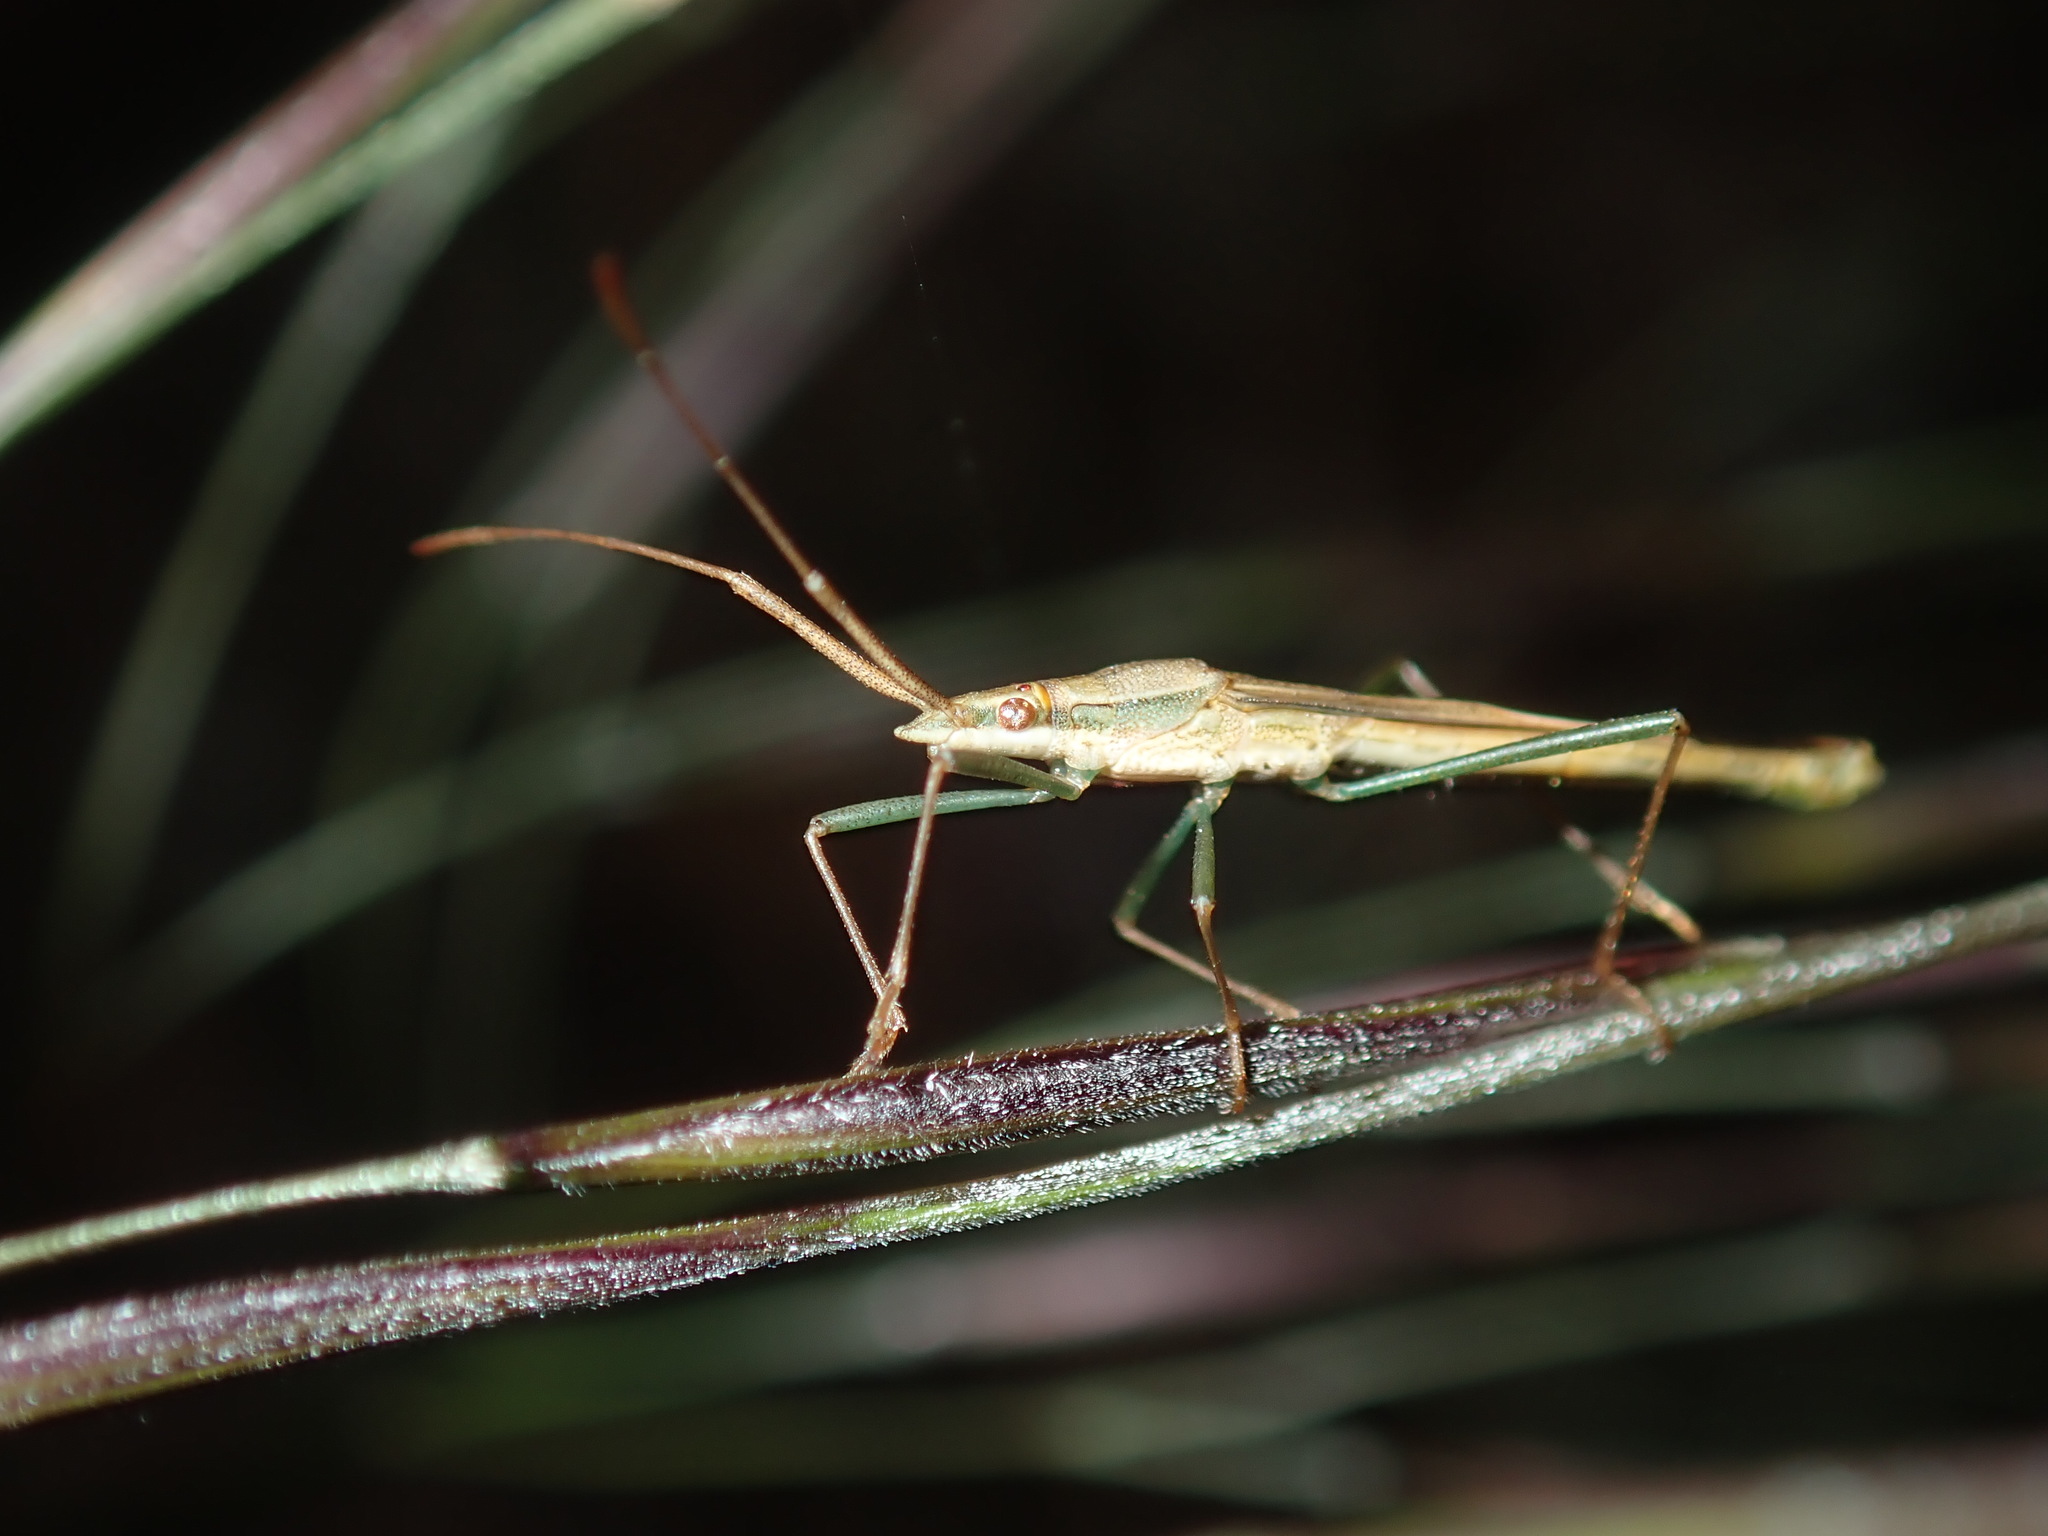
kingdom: Animalia
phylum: Arthropoda
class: Insecta
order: Hemiptera
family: Alydidae
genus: Mutusca
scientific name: Mutusca brevicornis
